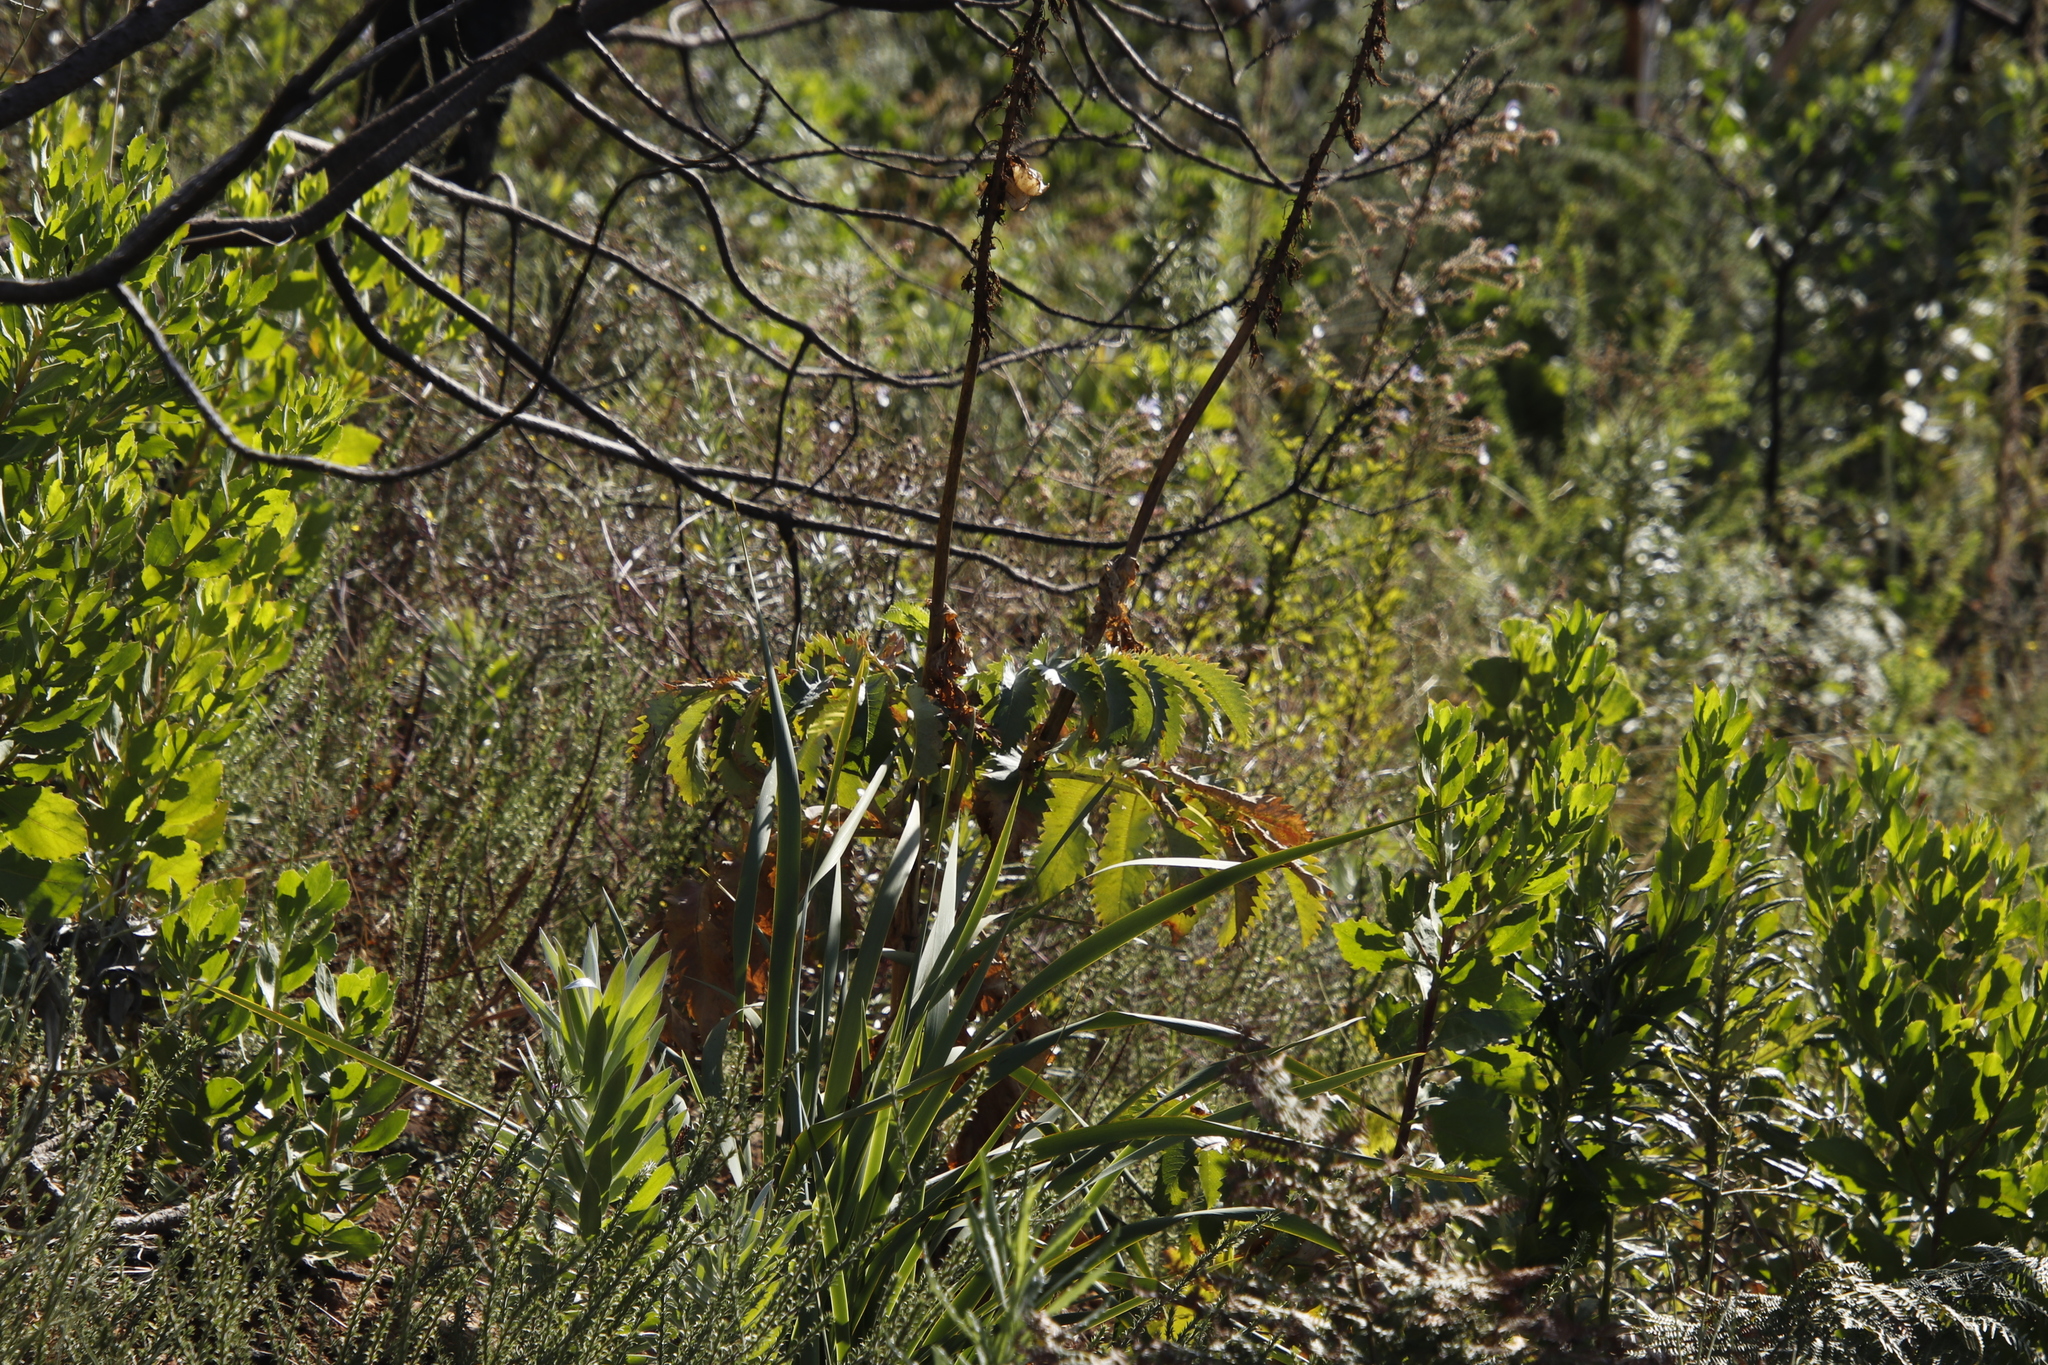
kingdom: Plantae
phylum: Tracheophyta
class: Magnoliopsida
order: Geraniales
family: Melianthaceae
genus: Melianthus
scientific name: Melianthus major
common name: Honey-flower
